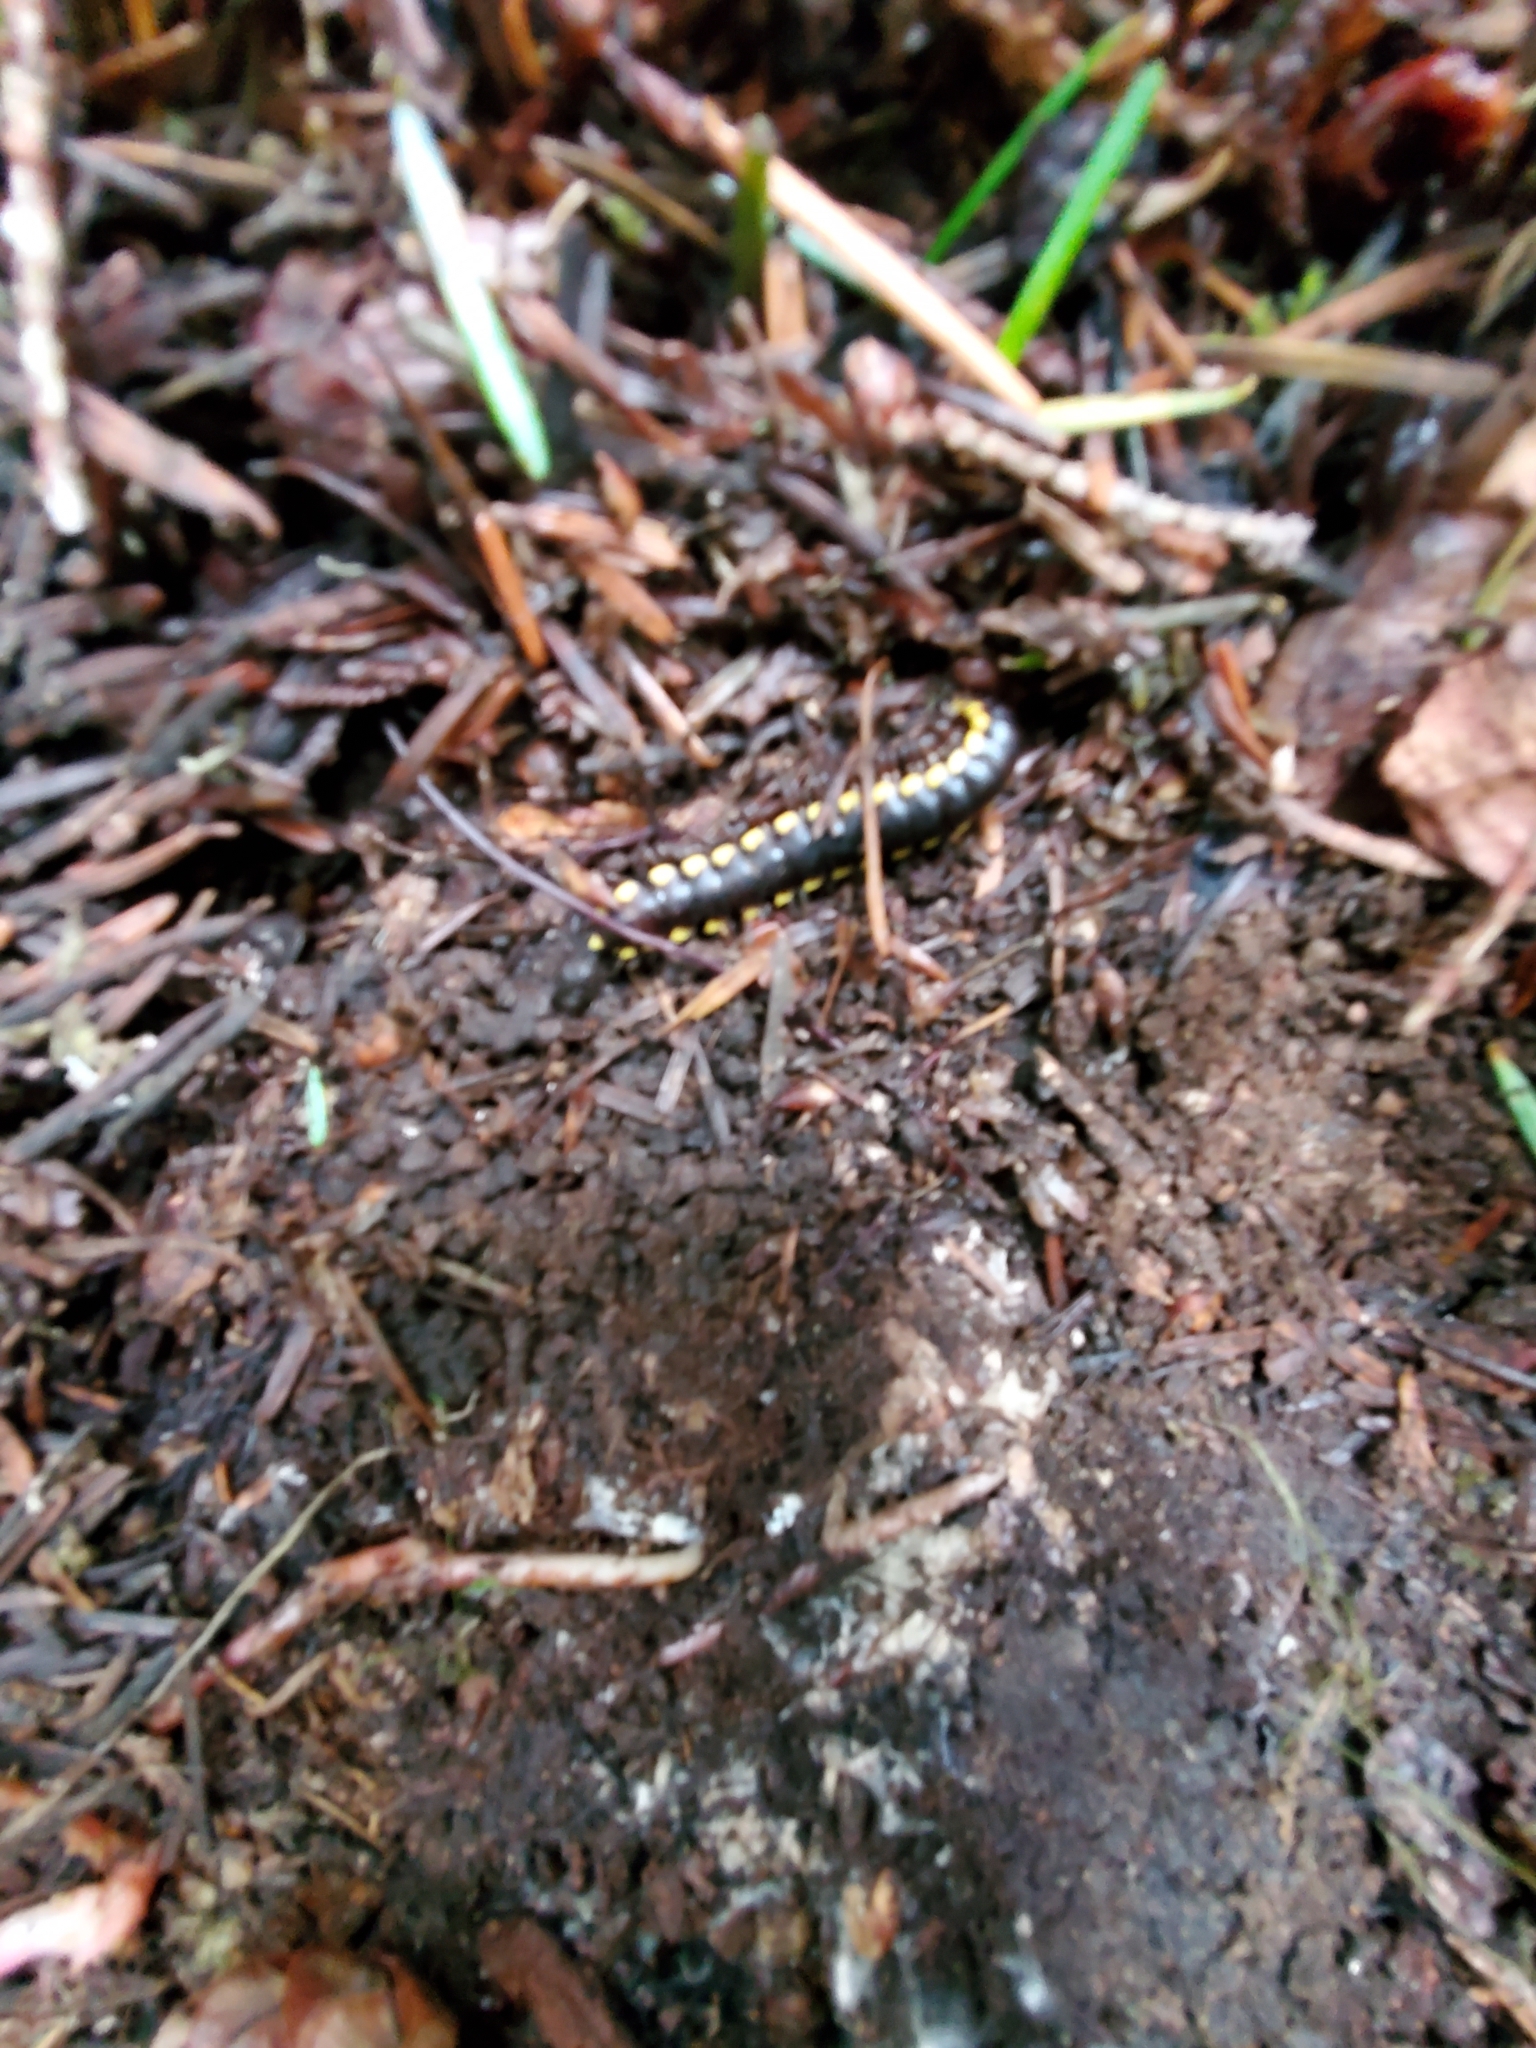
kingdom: Animalia
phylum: Arthropoda
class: Diplopoda
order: Polydesmida
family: Xystodesmidae
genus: Harpaphe
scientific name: Harpaphe haydeniana
